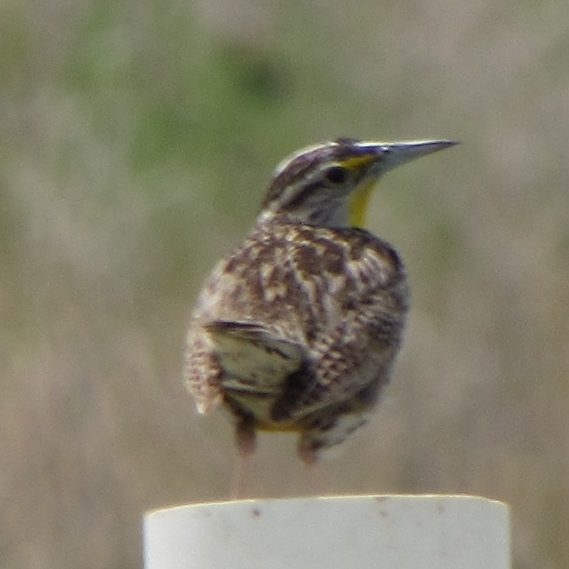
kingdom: Animalia
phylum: Chordata
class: Aves
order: Passeriformes
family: Icteridae
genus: Sturnella
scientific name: Sturnella neglecta
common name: Western meadowlark
